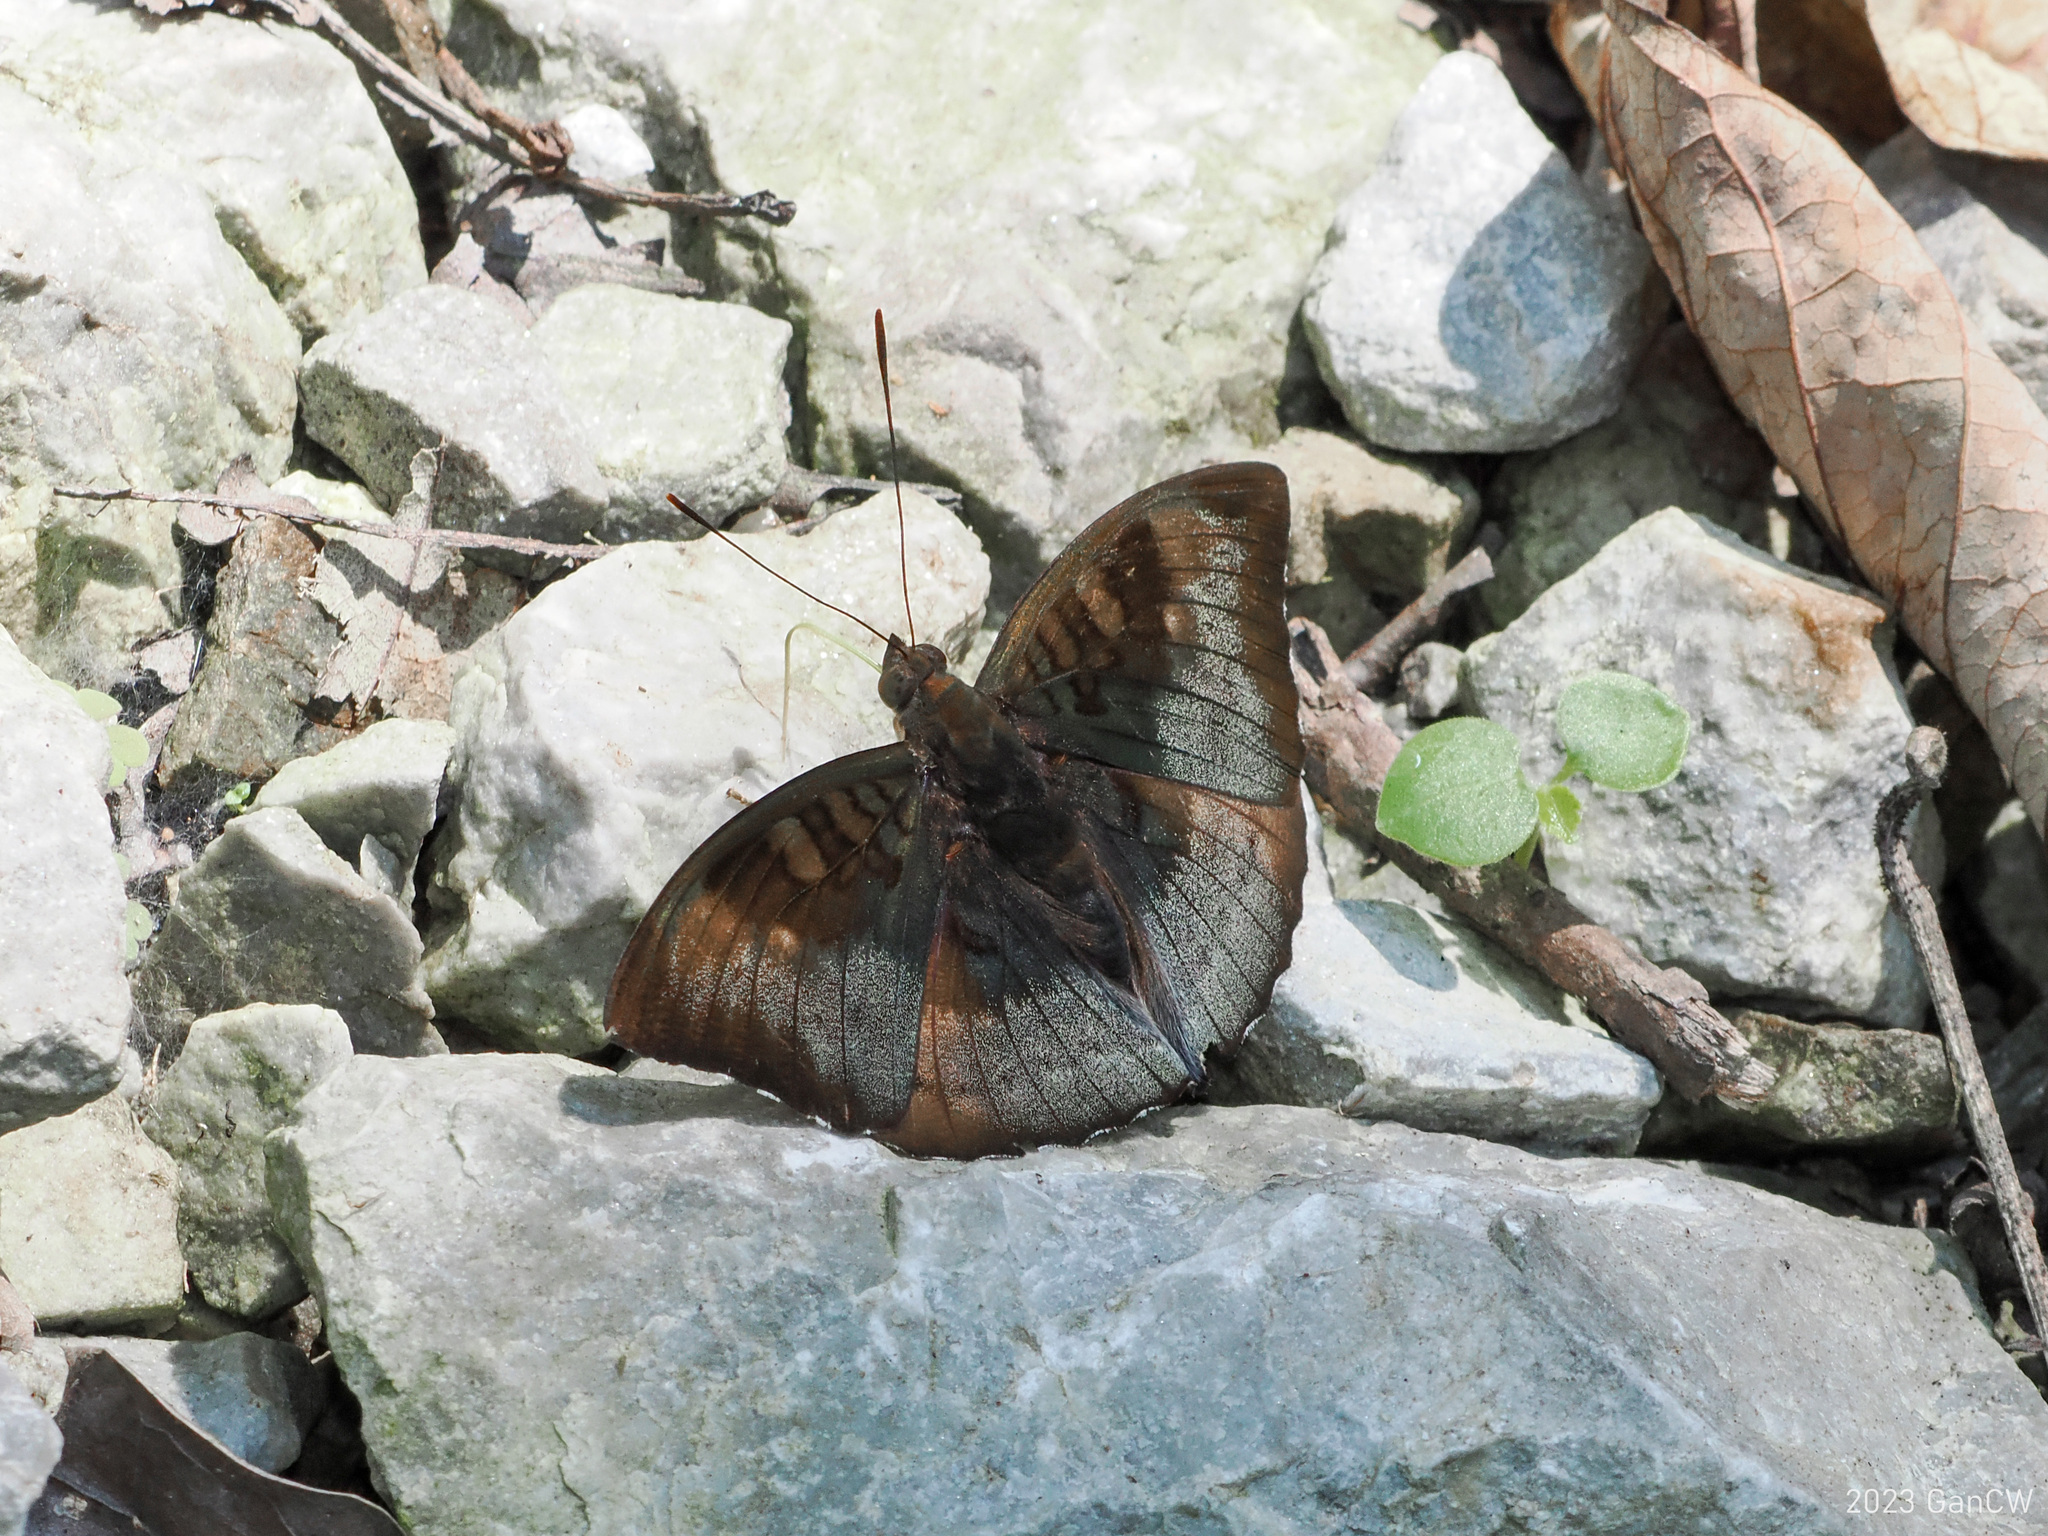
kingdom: Animalia
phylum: Arthropoda
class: Insecta
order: Lepidoptera
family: Nymphalidae
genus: Euthalia
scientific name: Euthalia monina
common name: Powdered baron
